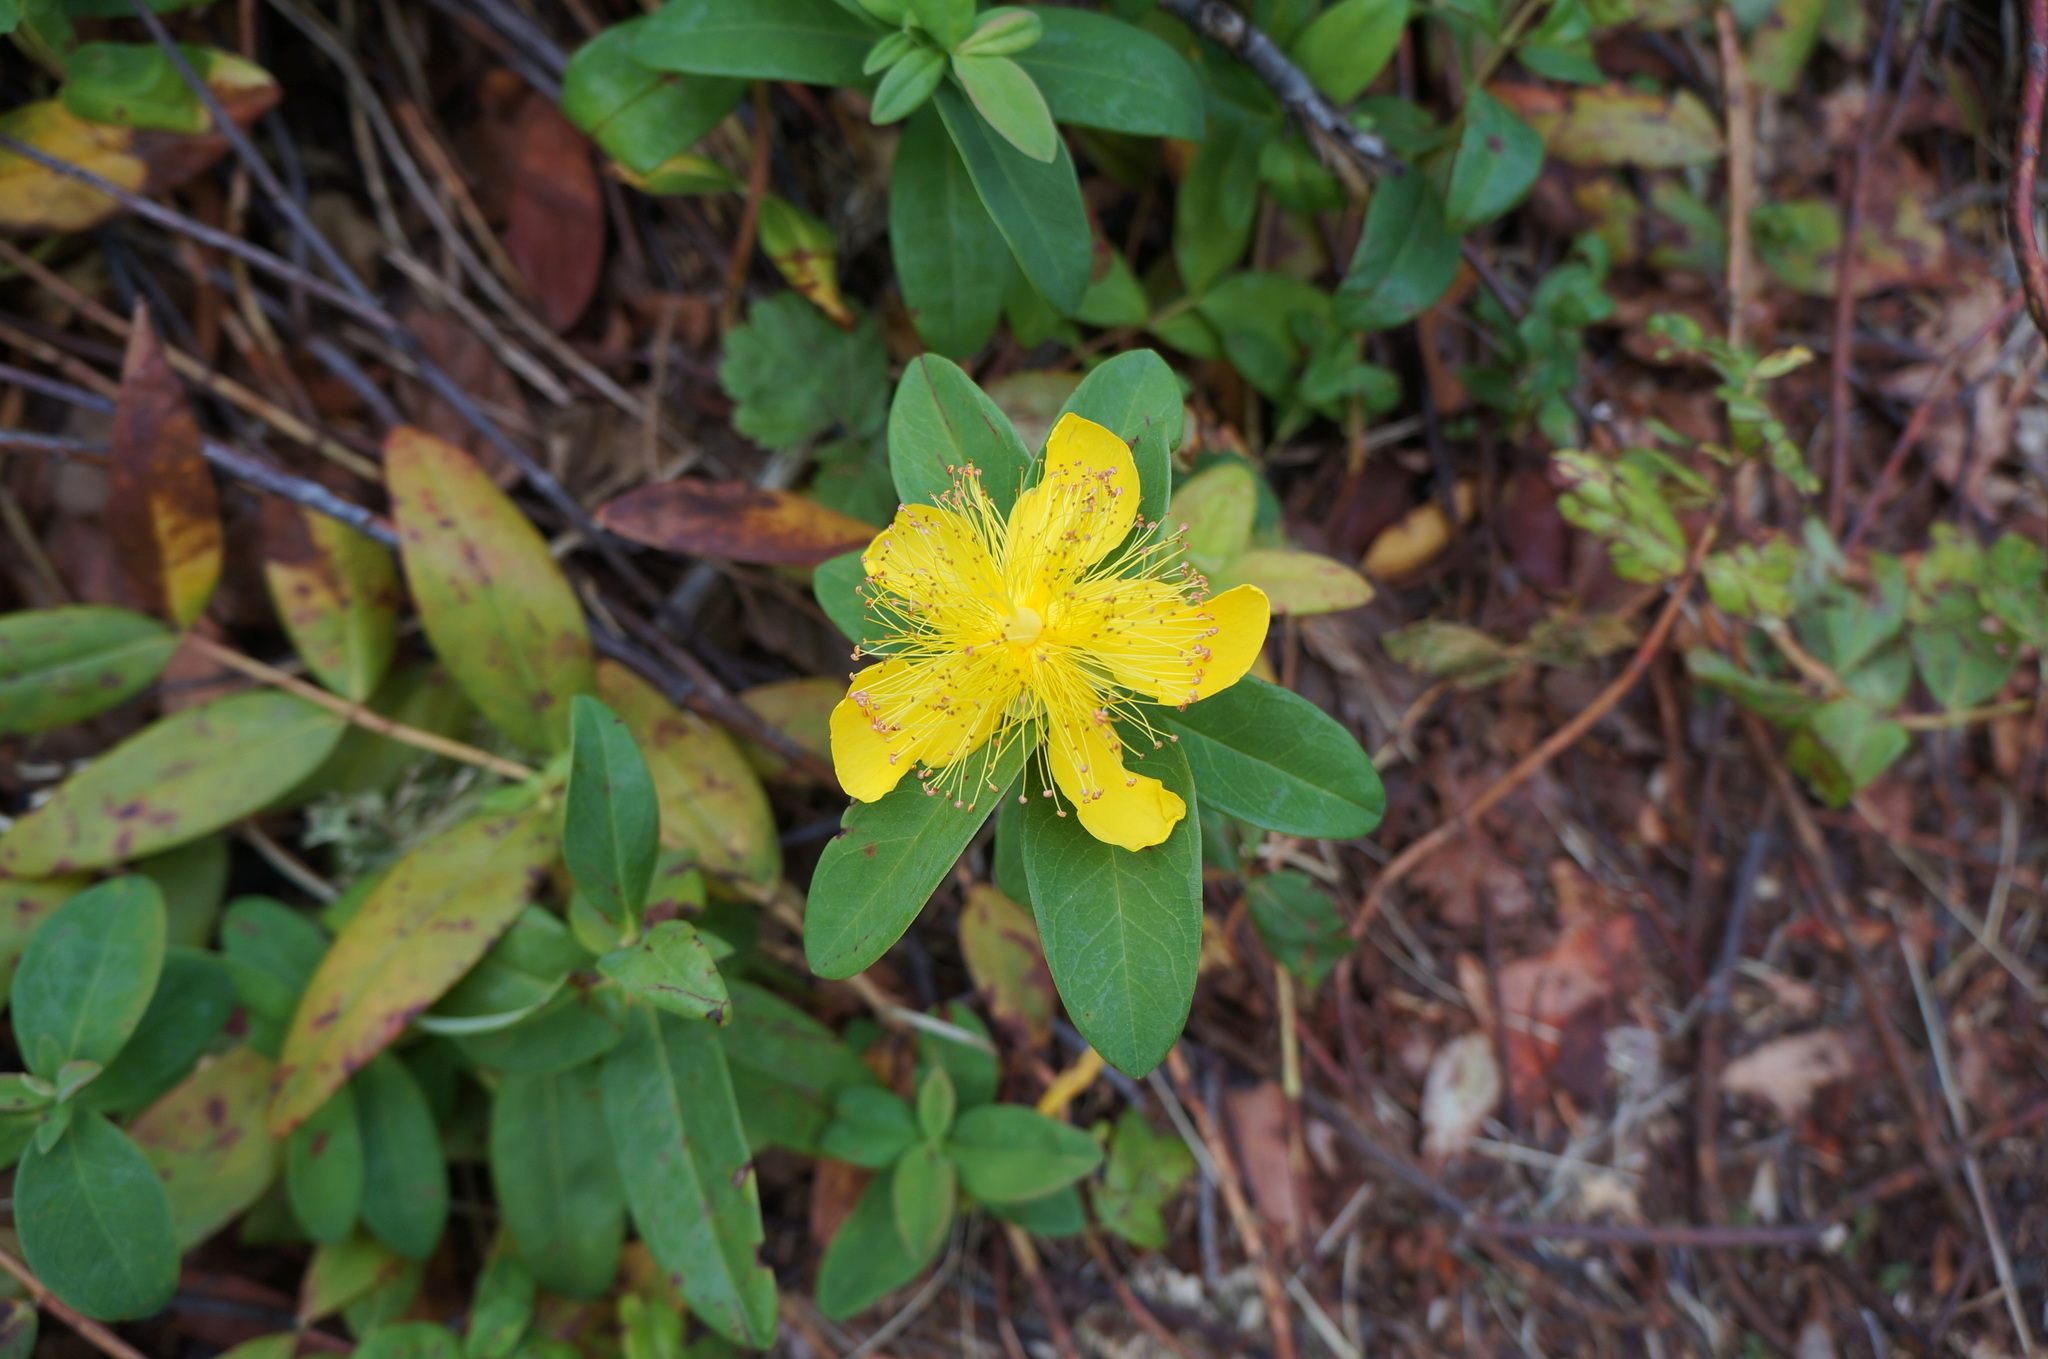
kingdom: Plantae
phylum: Tracheophyta
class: Magnoliopsida
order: Malpighiales
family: Hypericaceae
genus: Hypericum
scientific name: Hypericum calycinum
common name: Rose-of-sharon
